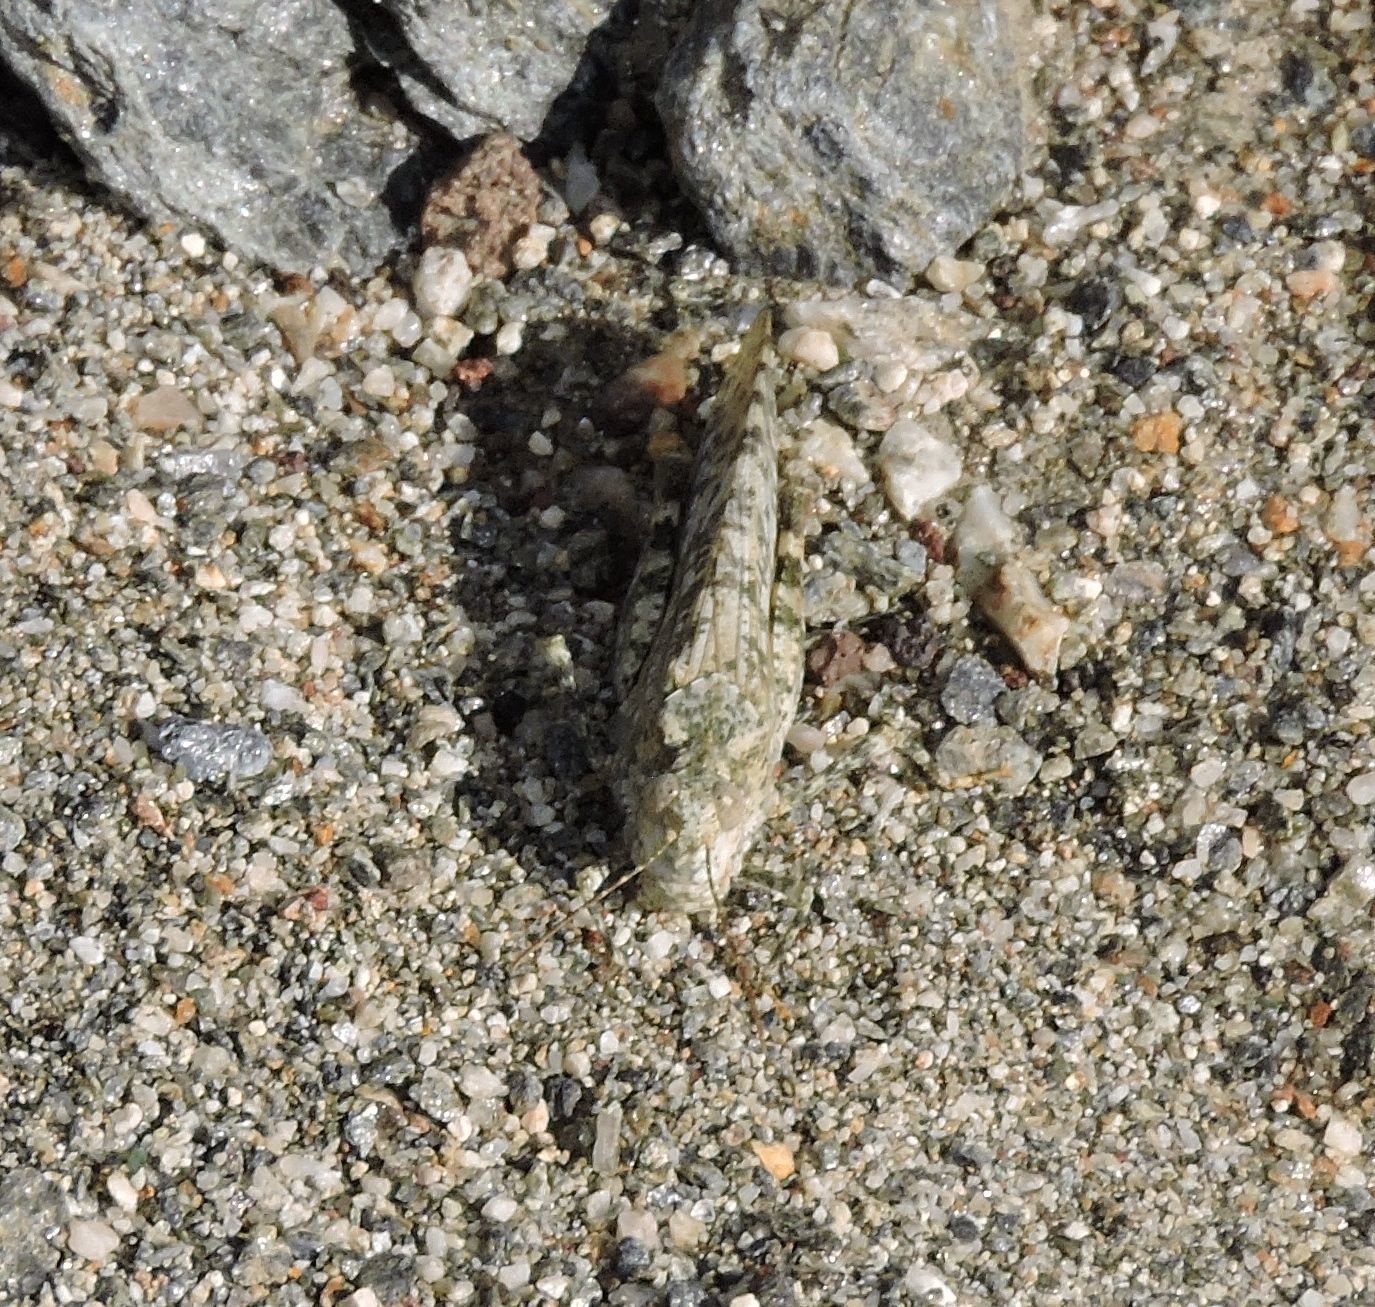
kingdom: Animalia
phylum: Arthropoda
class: Insecta
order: Orthoptera
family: Acrididae
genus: Circotettix
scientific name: Circotettix shastanus
